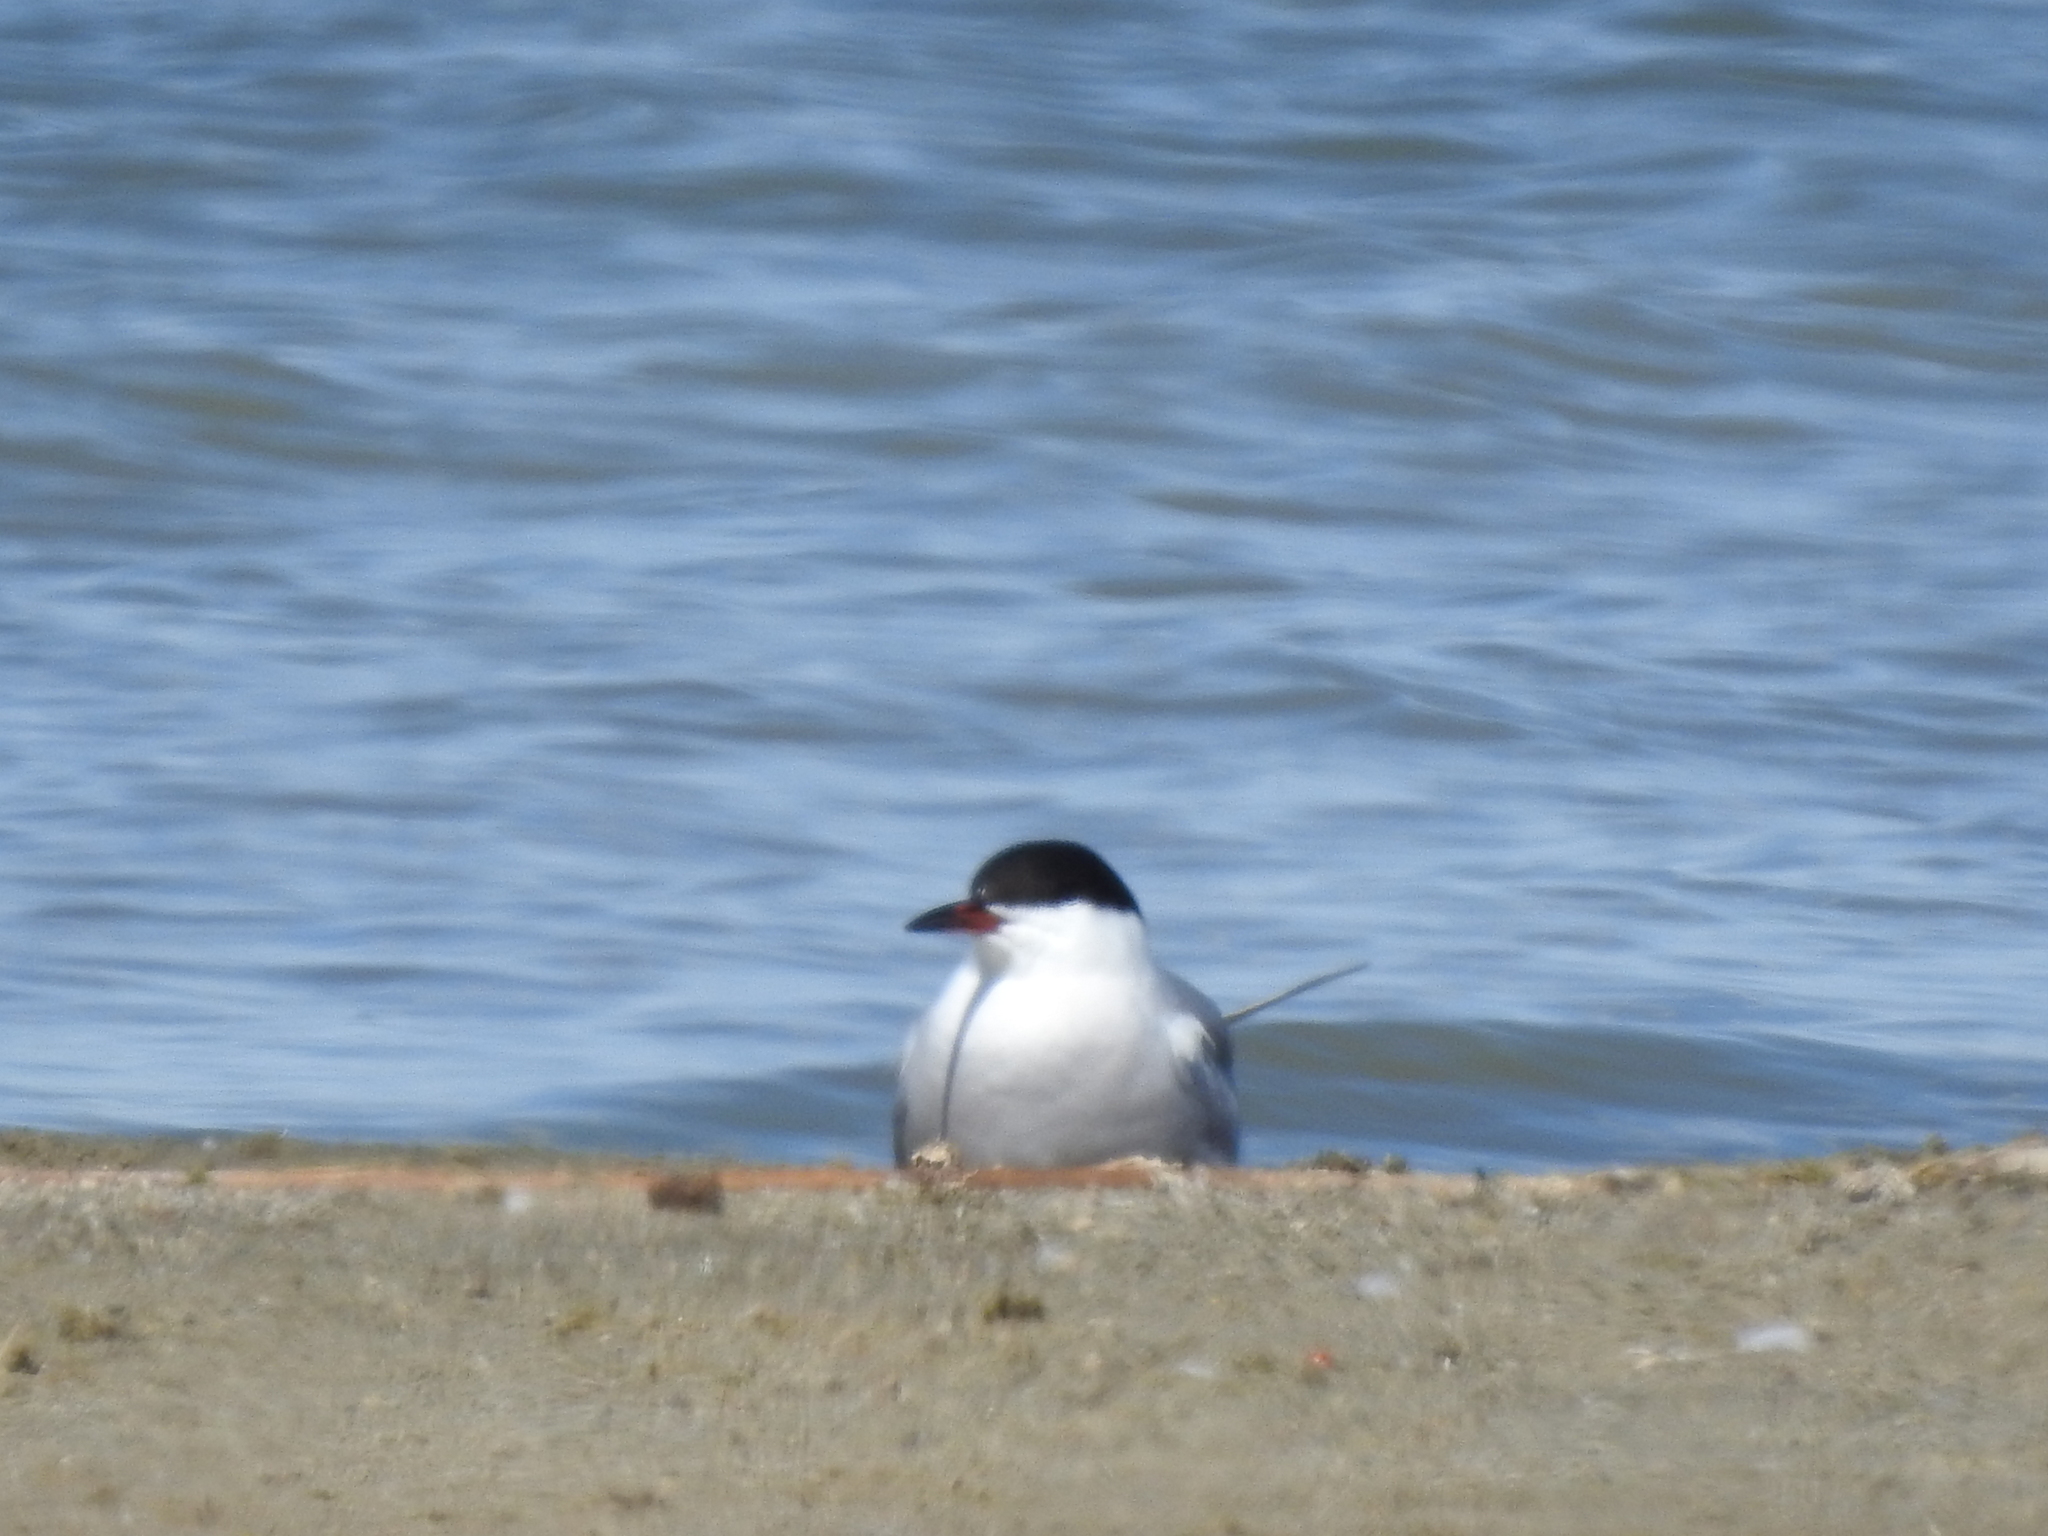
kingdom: Animalia
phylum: Chordata
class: Aves
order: Charadriiformes
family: Laridae
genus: Sterna
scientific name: Sterna hirundo
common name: Common tern
